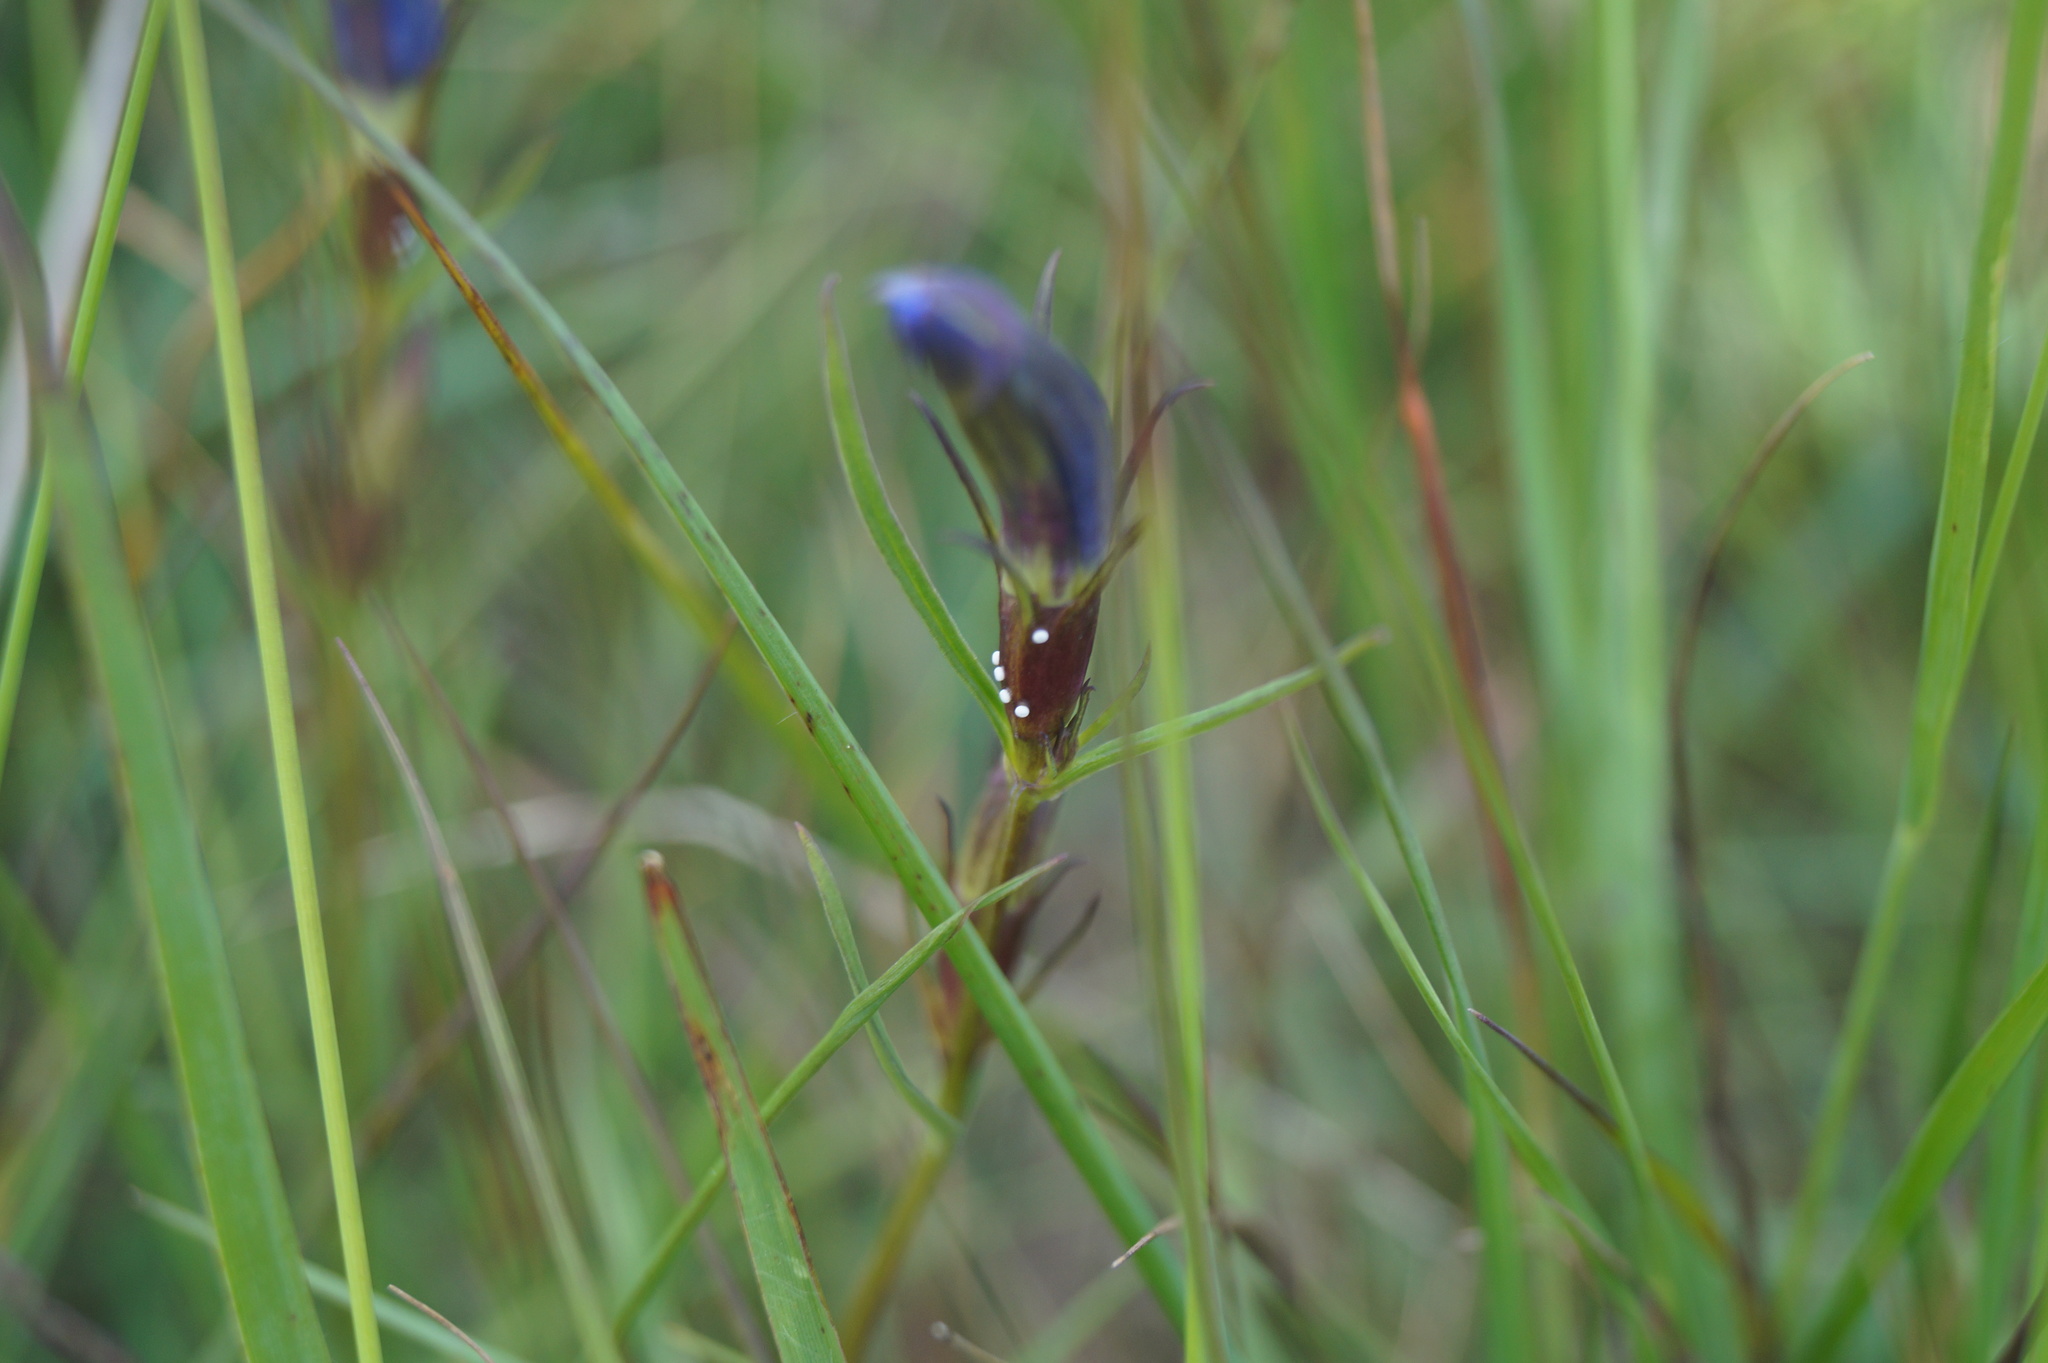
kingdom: Plantae
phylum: Tracheophyta
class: Magnoliopsida
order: Gentianales
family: Gentianaceae
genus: Gentiana
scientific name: Gentiana pneumonanthe
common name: Marsh gentian
